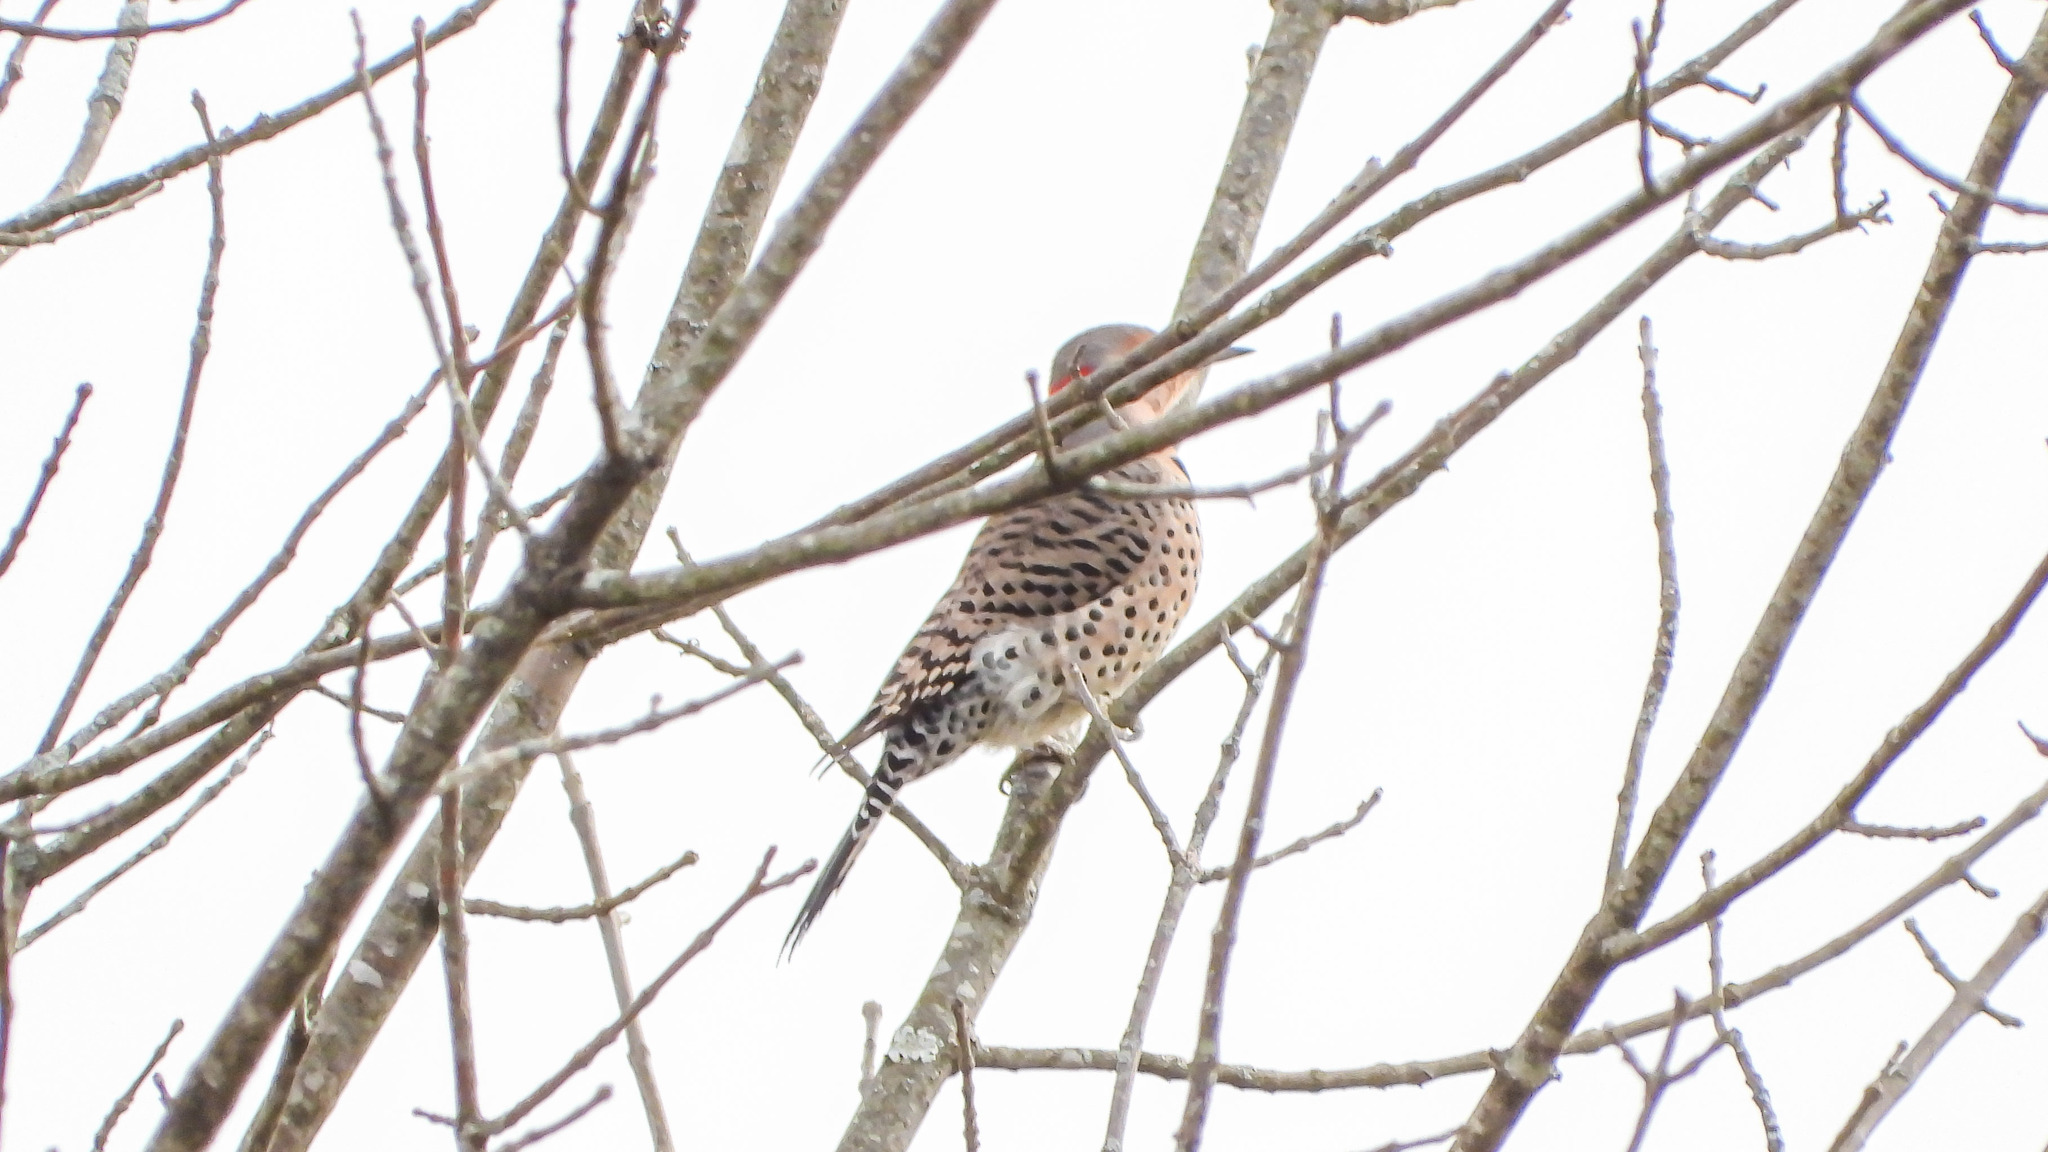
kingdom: Animalia
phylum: Chordata
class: Aves
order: Piciformes
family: Picidae
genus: Colaptes
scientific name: Colaptes auratus
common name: Northern flicker
